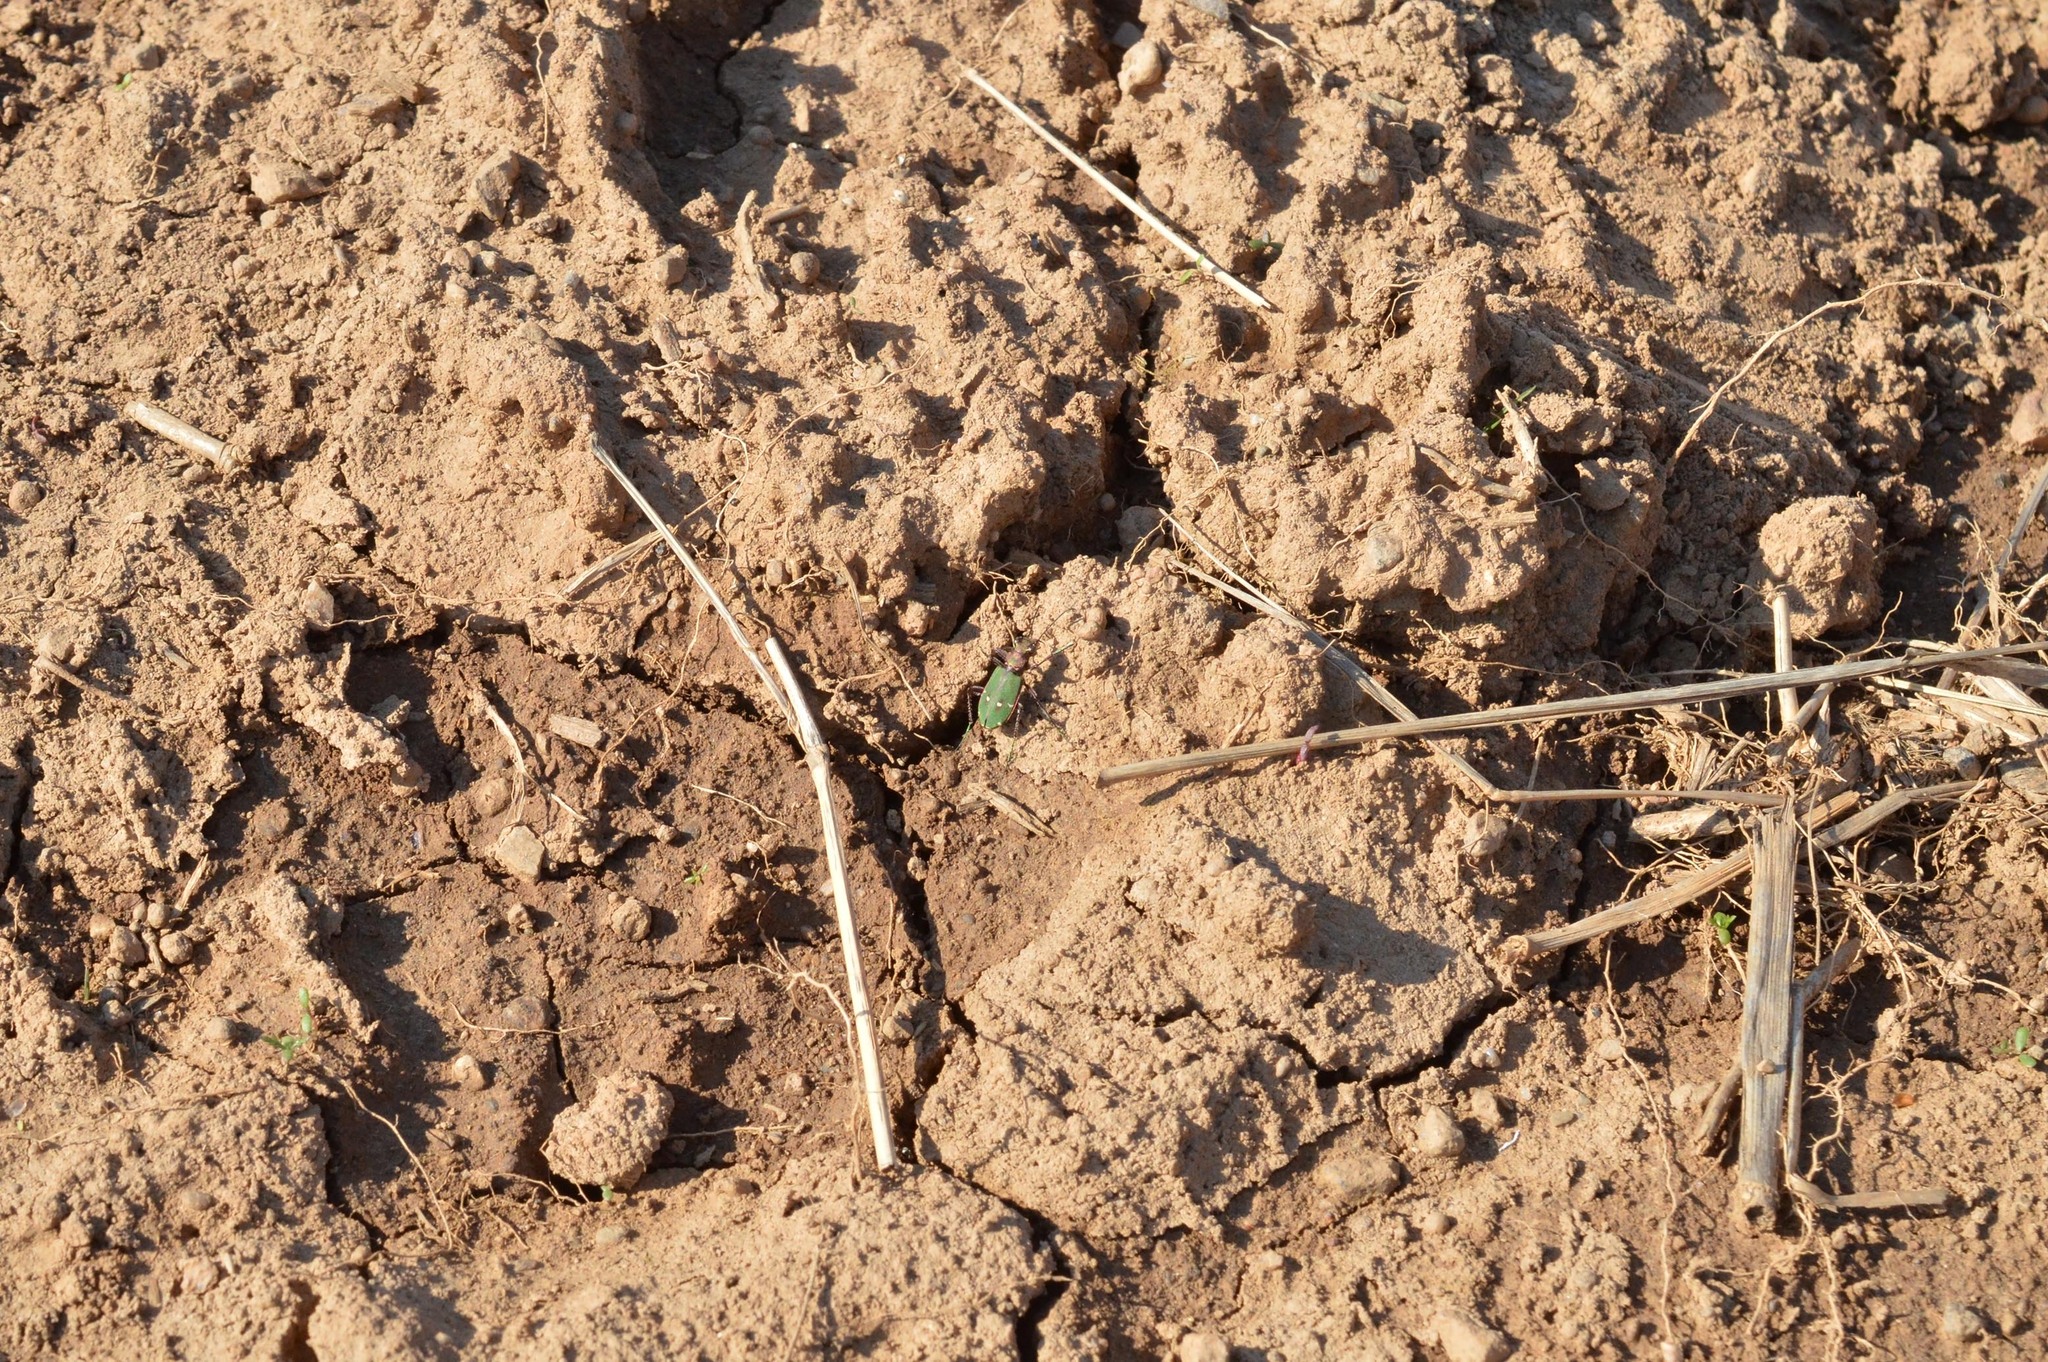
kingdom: Animalia
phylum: Arthropoda
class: Insecta
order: Coleoptera
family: Carabidae
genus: Cicindela
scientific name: Cicindela campestris
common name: Common tiger beetle
